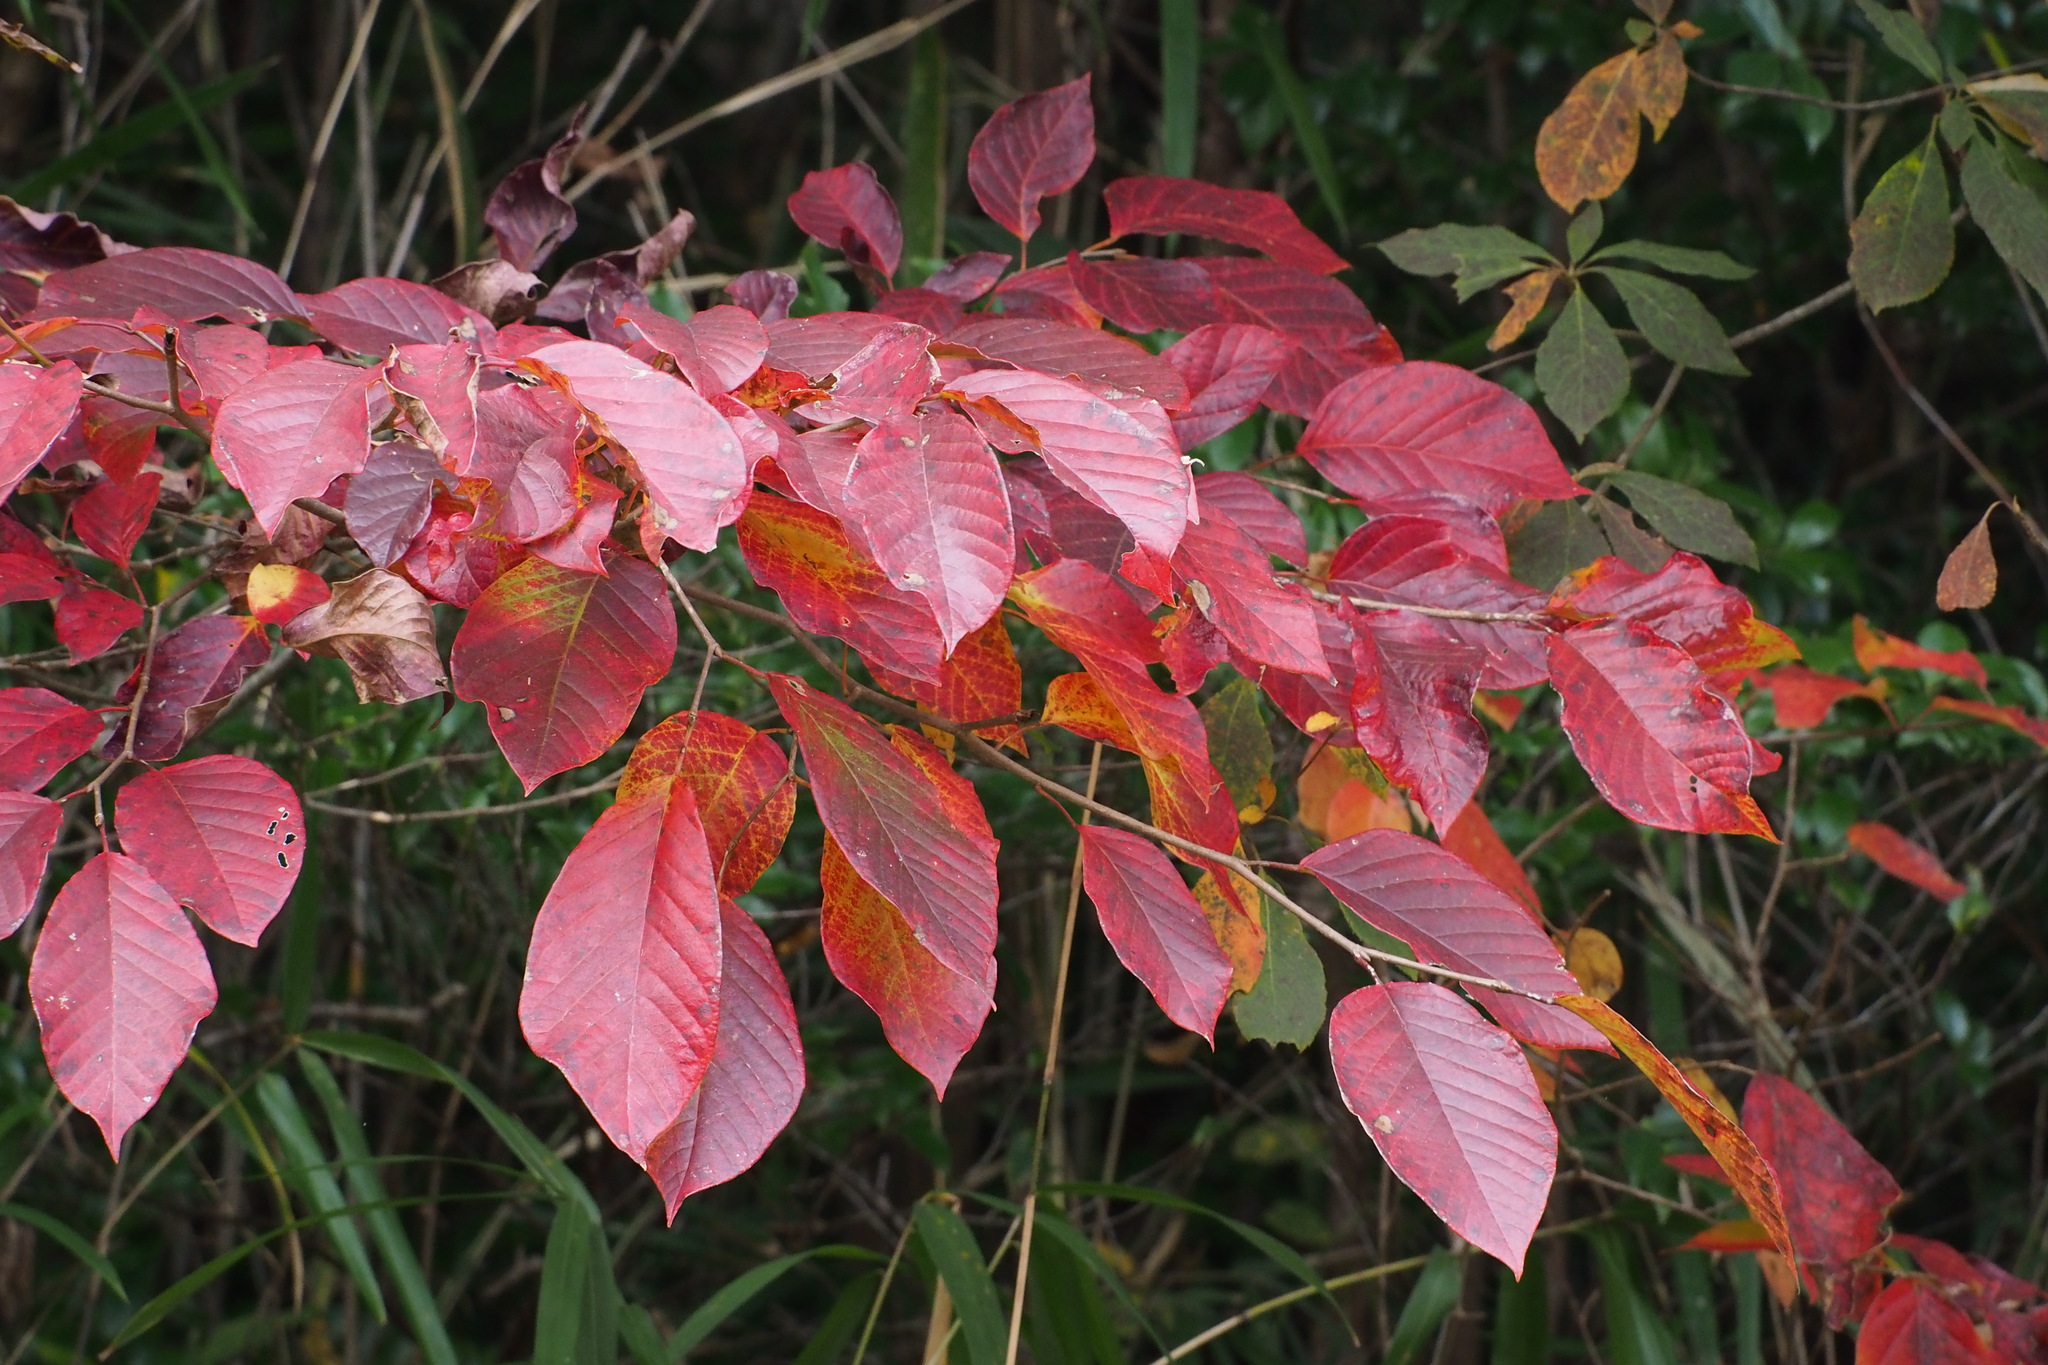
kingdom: Plantae
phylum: Tracheophyta
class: Magnoliopsida
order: Malpighiales
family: Euphorbiaceae
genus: Neoshirakia
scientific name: Neoshirakia japonica
